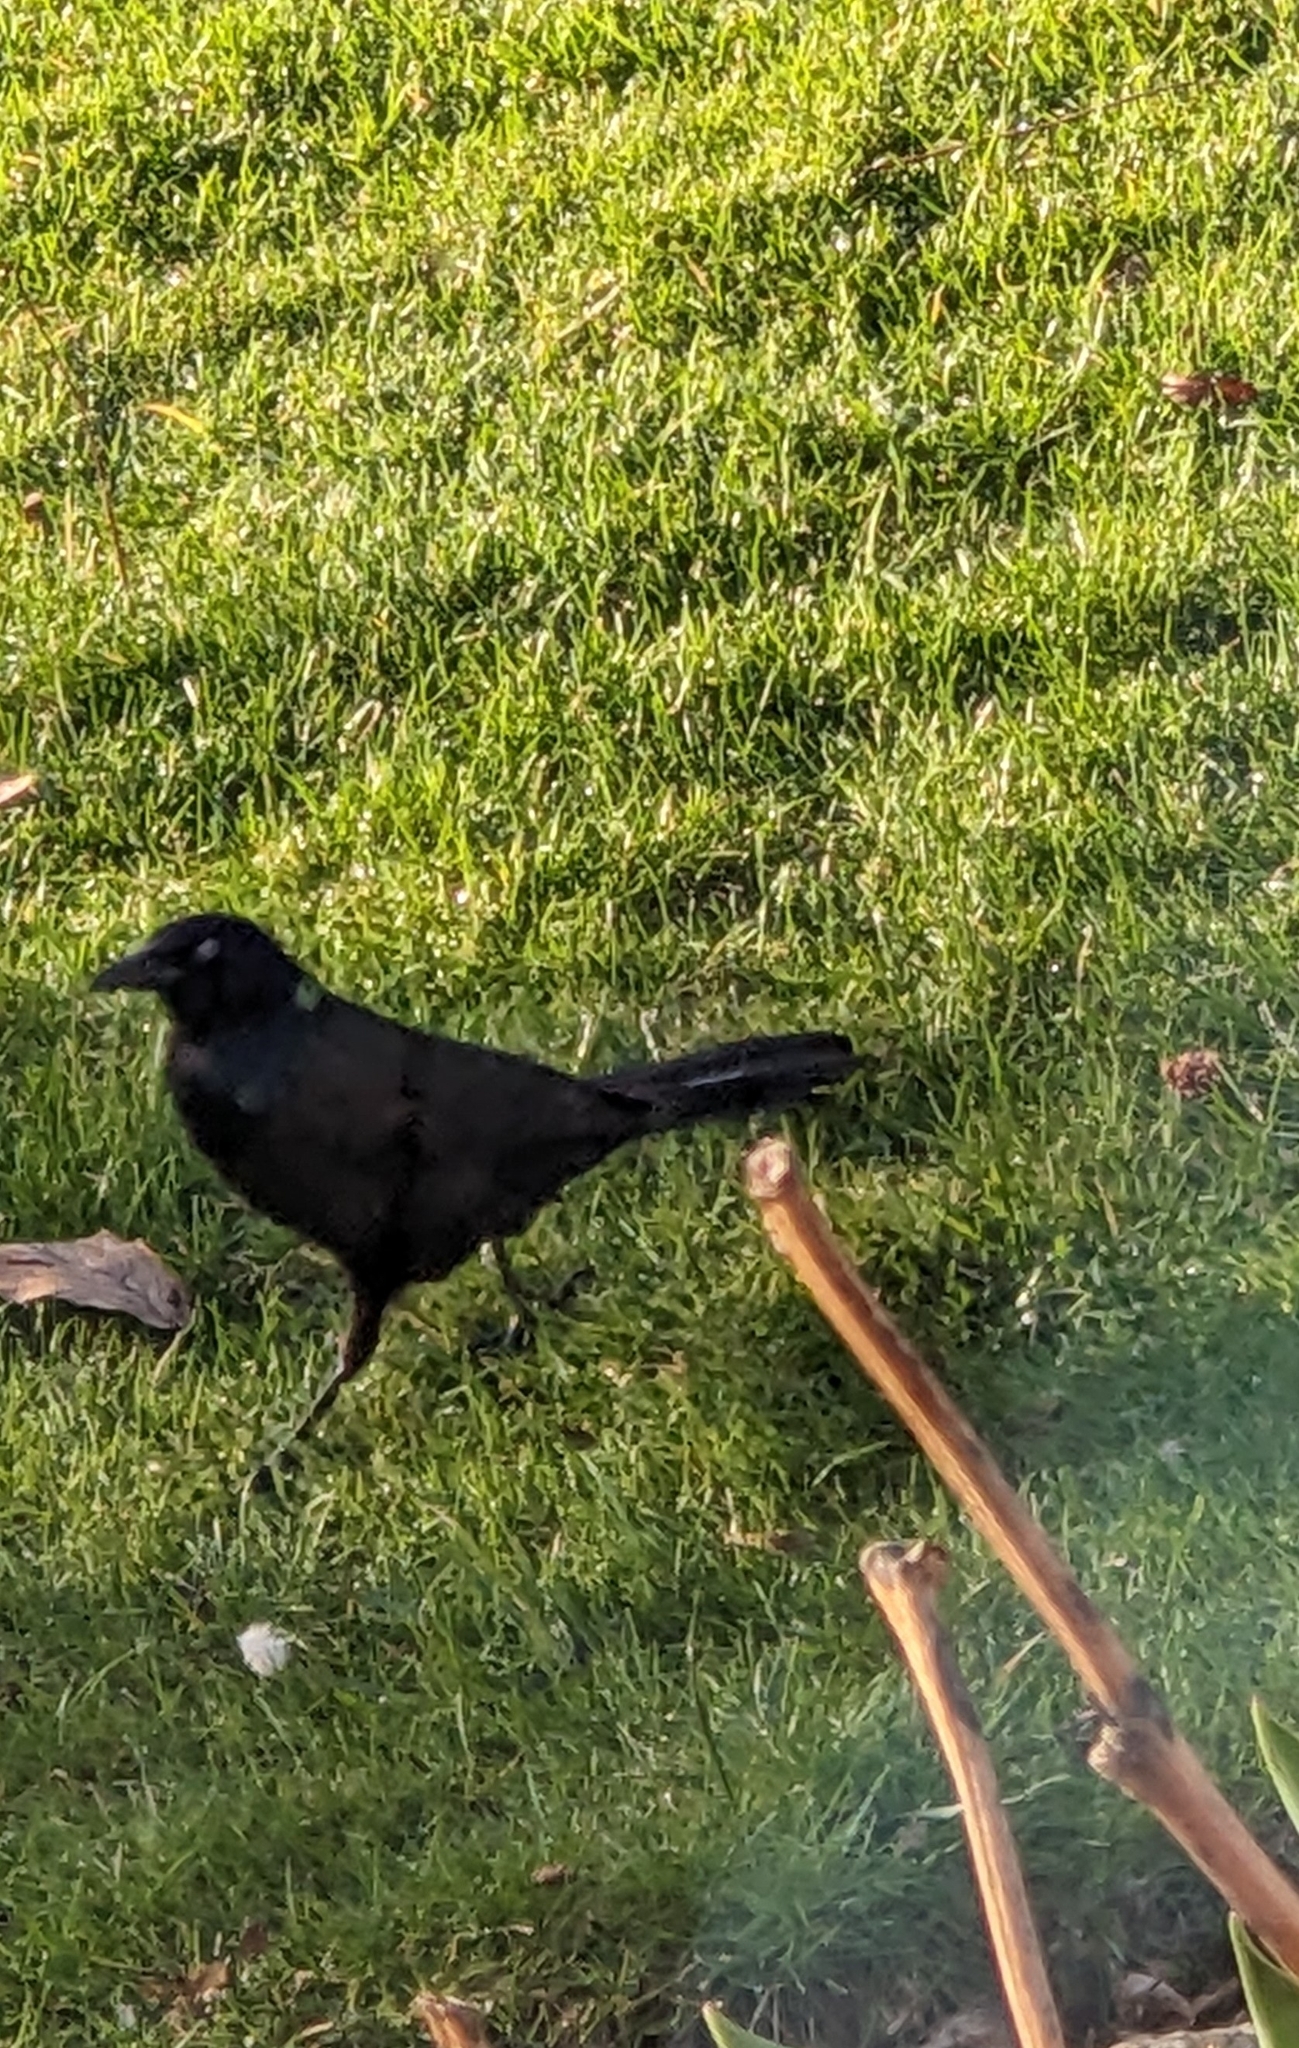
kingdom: Animalia
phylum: Chordata
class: Aves
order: Passeriformes
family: Icteridae
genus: Quiscalus
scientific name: Quiscalus quiscula
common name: Common grackle
